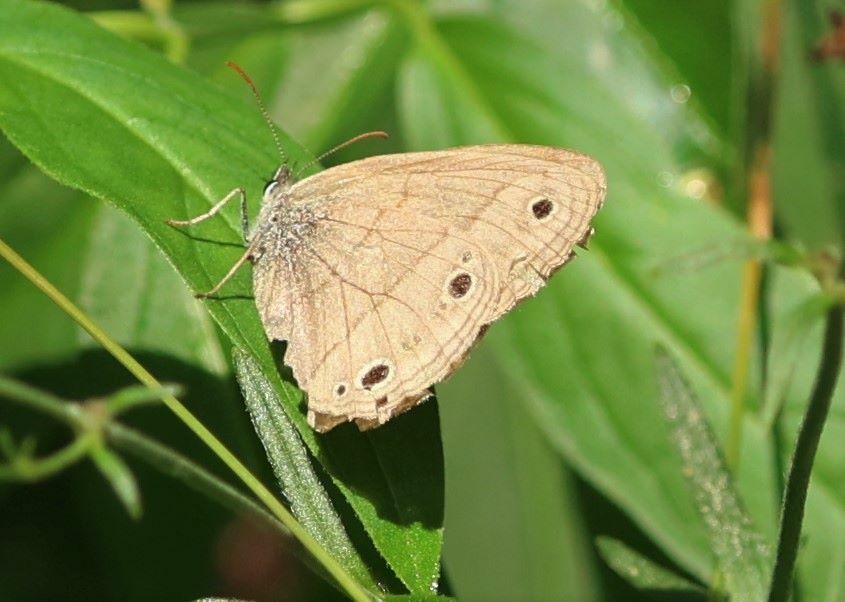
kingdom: Animalia
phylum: Arthropoda
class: Insecta
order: Lepidoptera
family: Nymphalidae
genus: Euptychia
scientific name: Euptychia cymela
